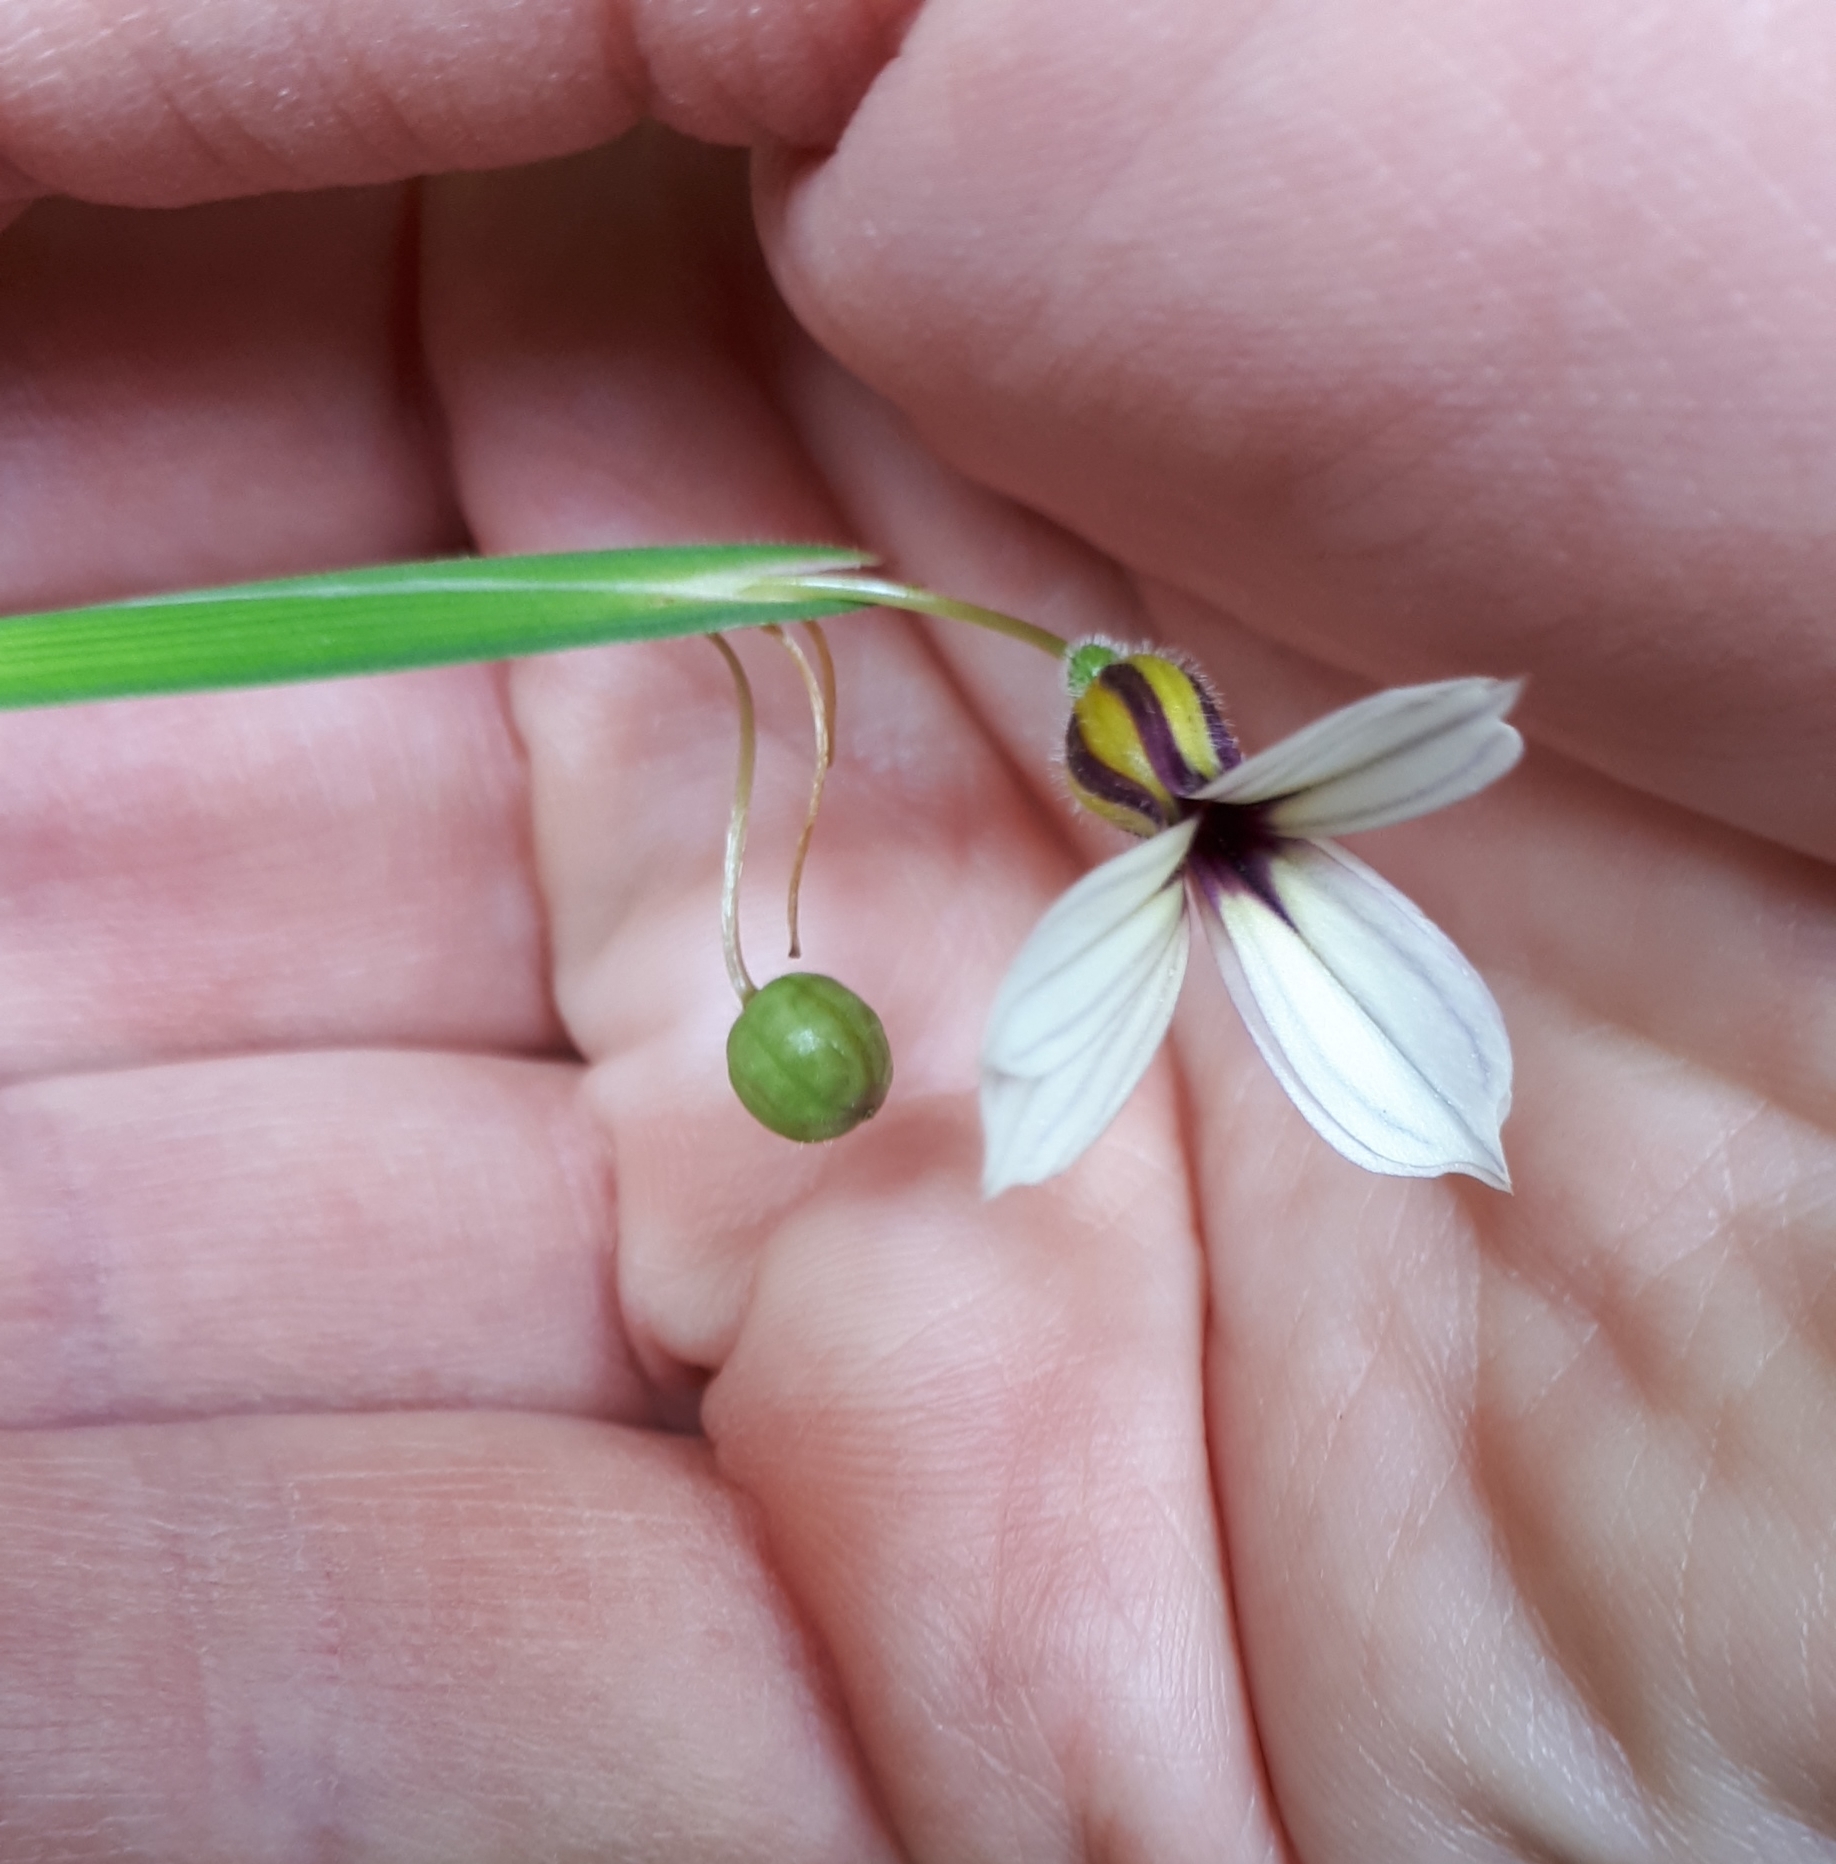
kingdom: Plantae
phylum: Tracheophyta
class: Liliopsida
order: Asparagales
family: Iridaceae
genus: Sisyrinchium
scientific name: Sisyrinchium micranthum
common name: Bermuda pigroot
